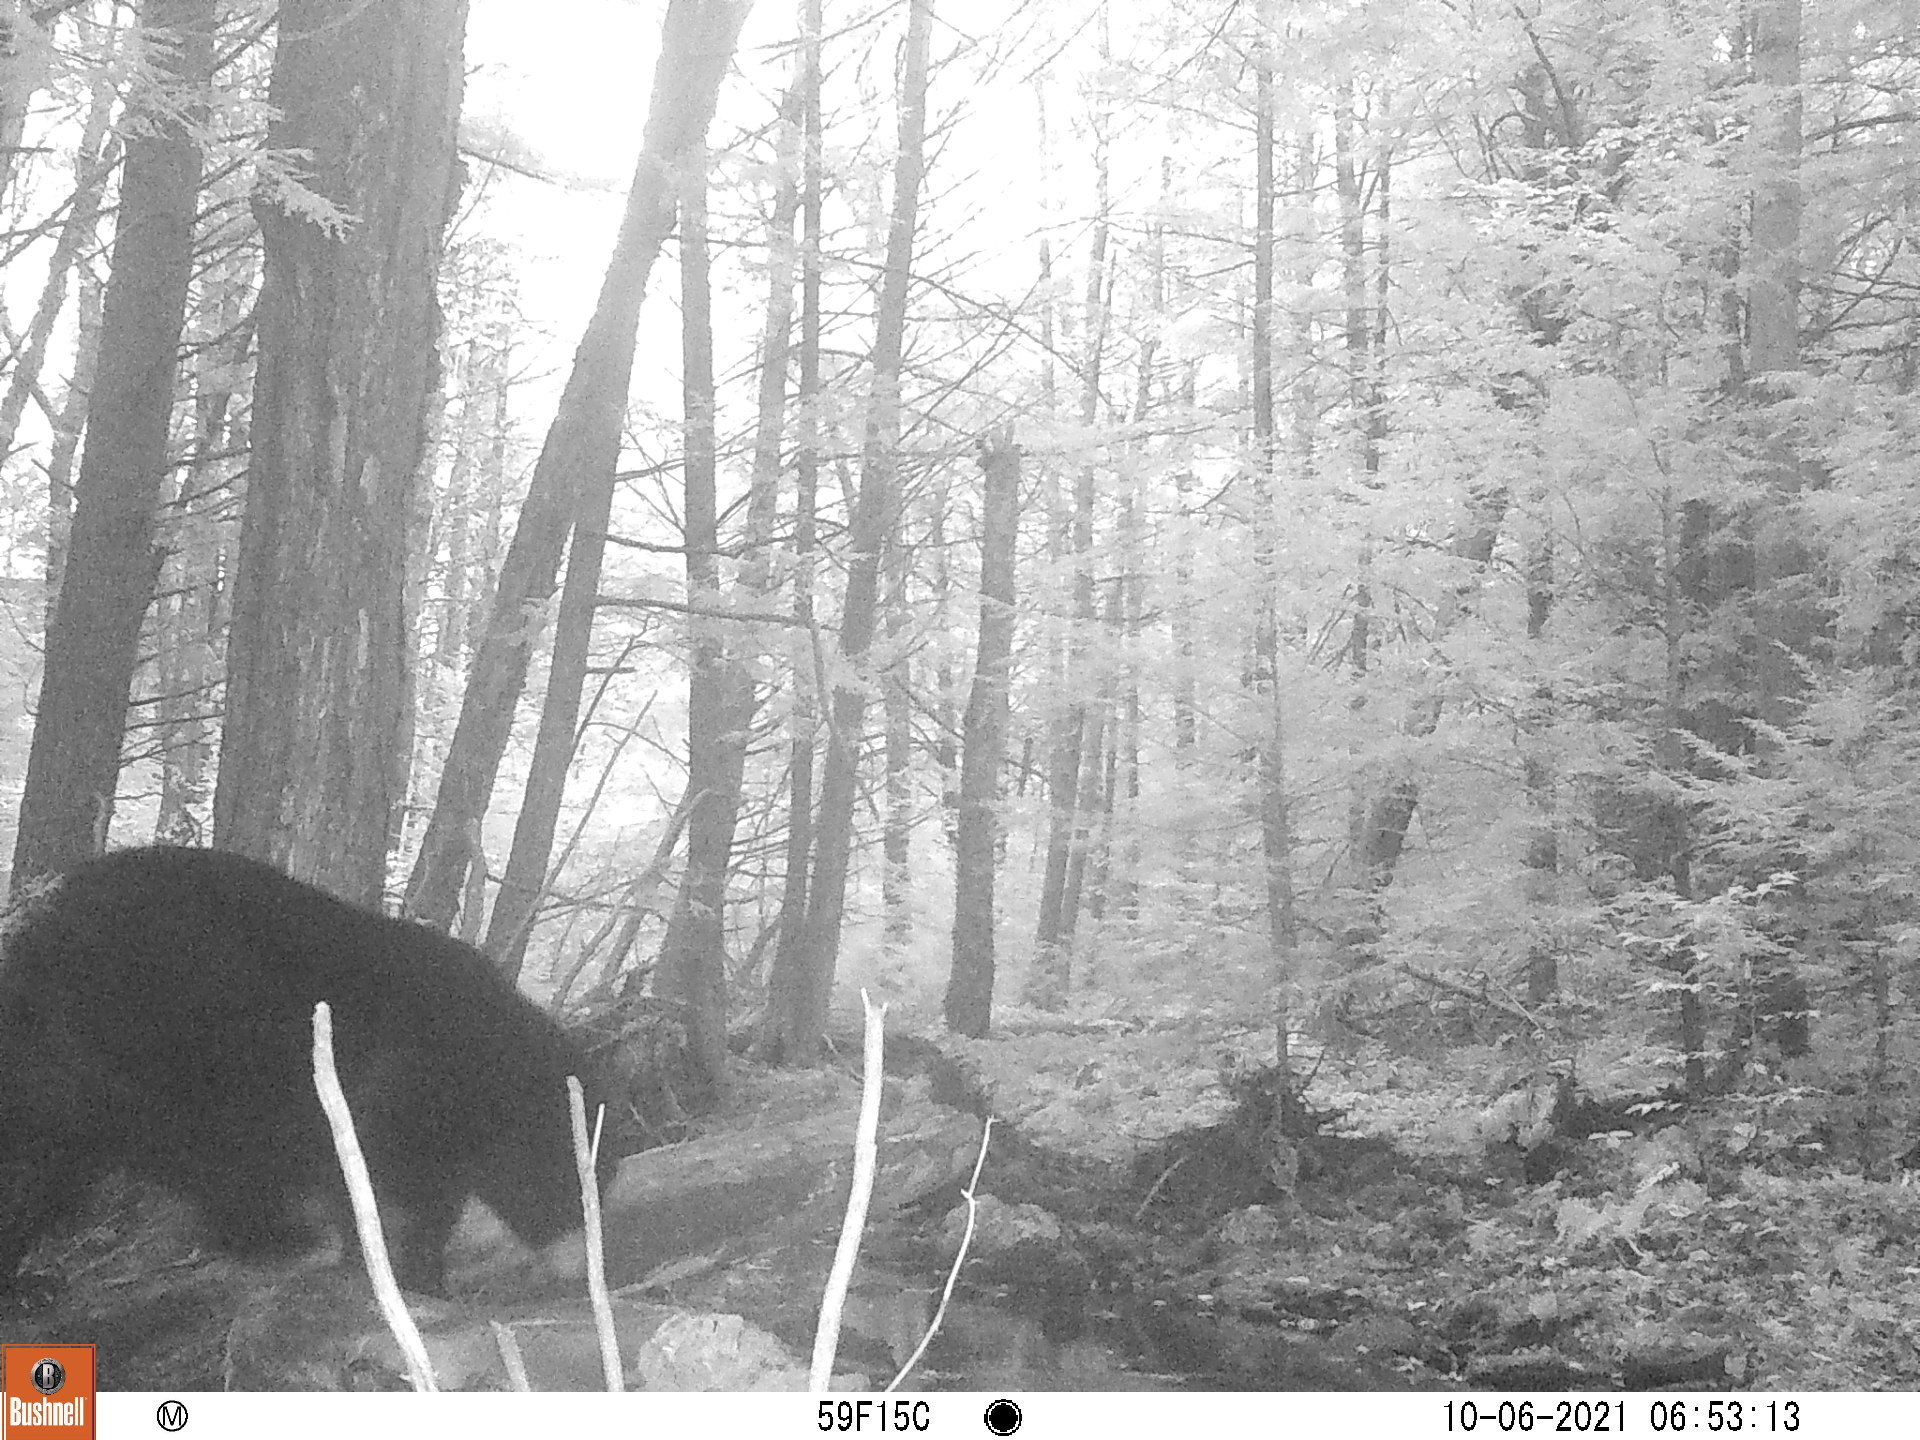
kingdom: Animalia
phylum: Chordata
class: Mammalia
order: Carnivora
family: Ursidae
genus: Ursus
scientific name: Ursus americanus
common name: American black bear
